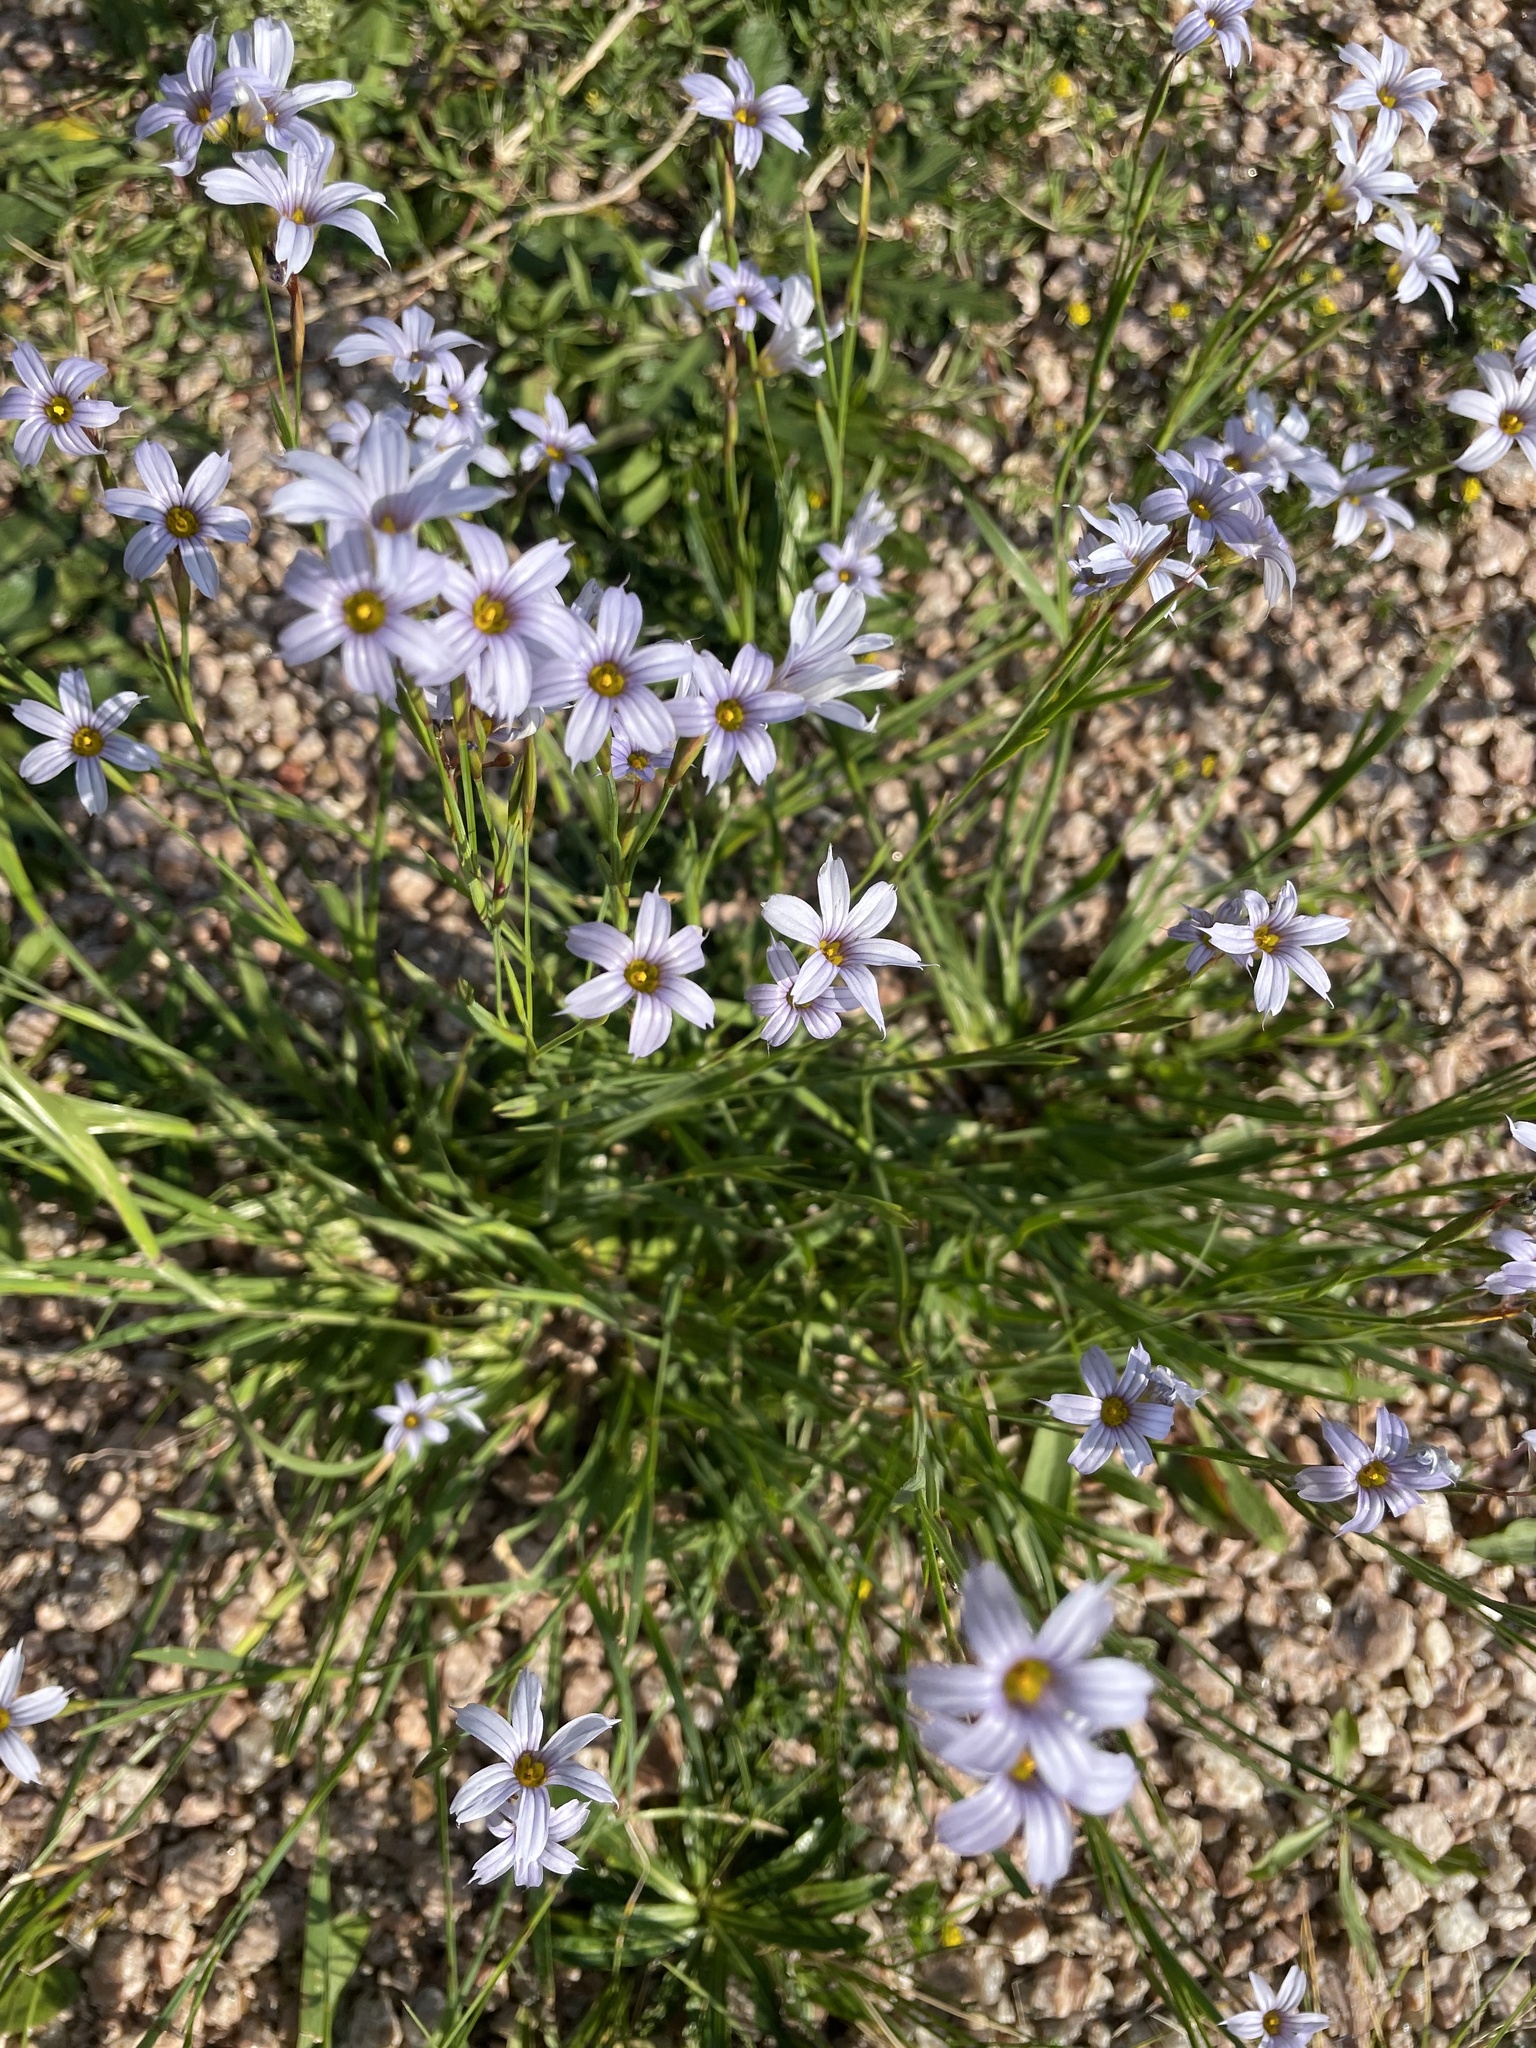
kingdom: Plantae
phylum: Tracheophyta
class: Liliopsida
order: Asparagales
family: Iridaceae
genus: Sisyrinchium
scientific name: Sisyrinchium platense
